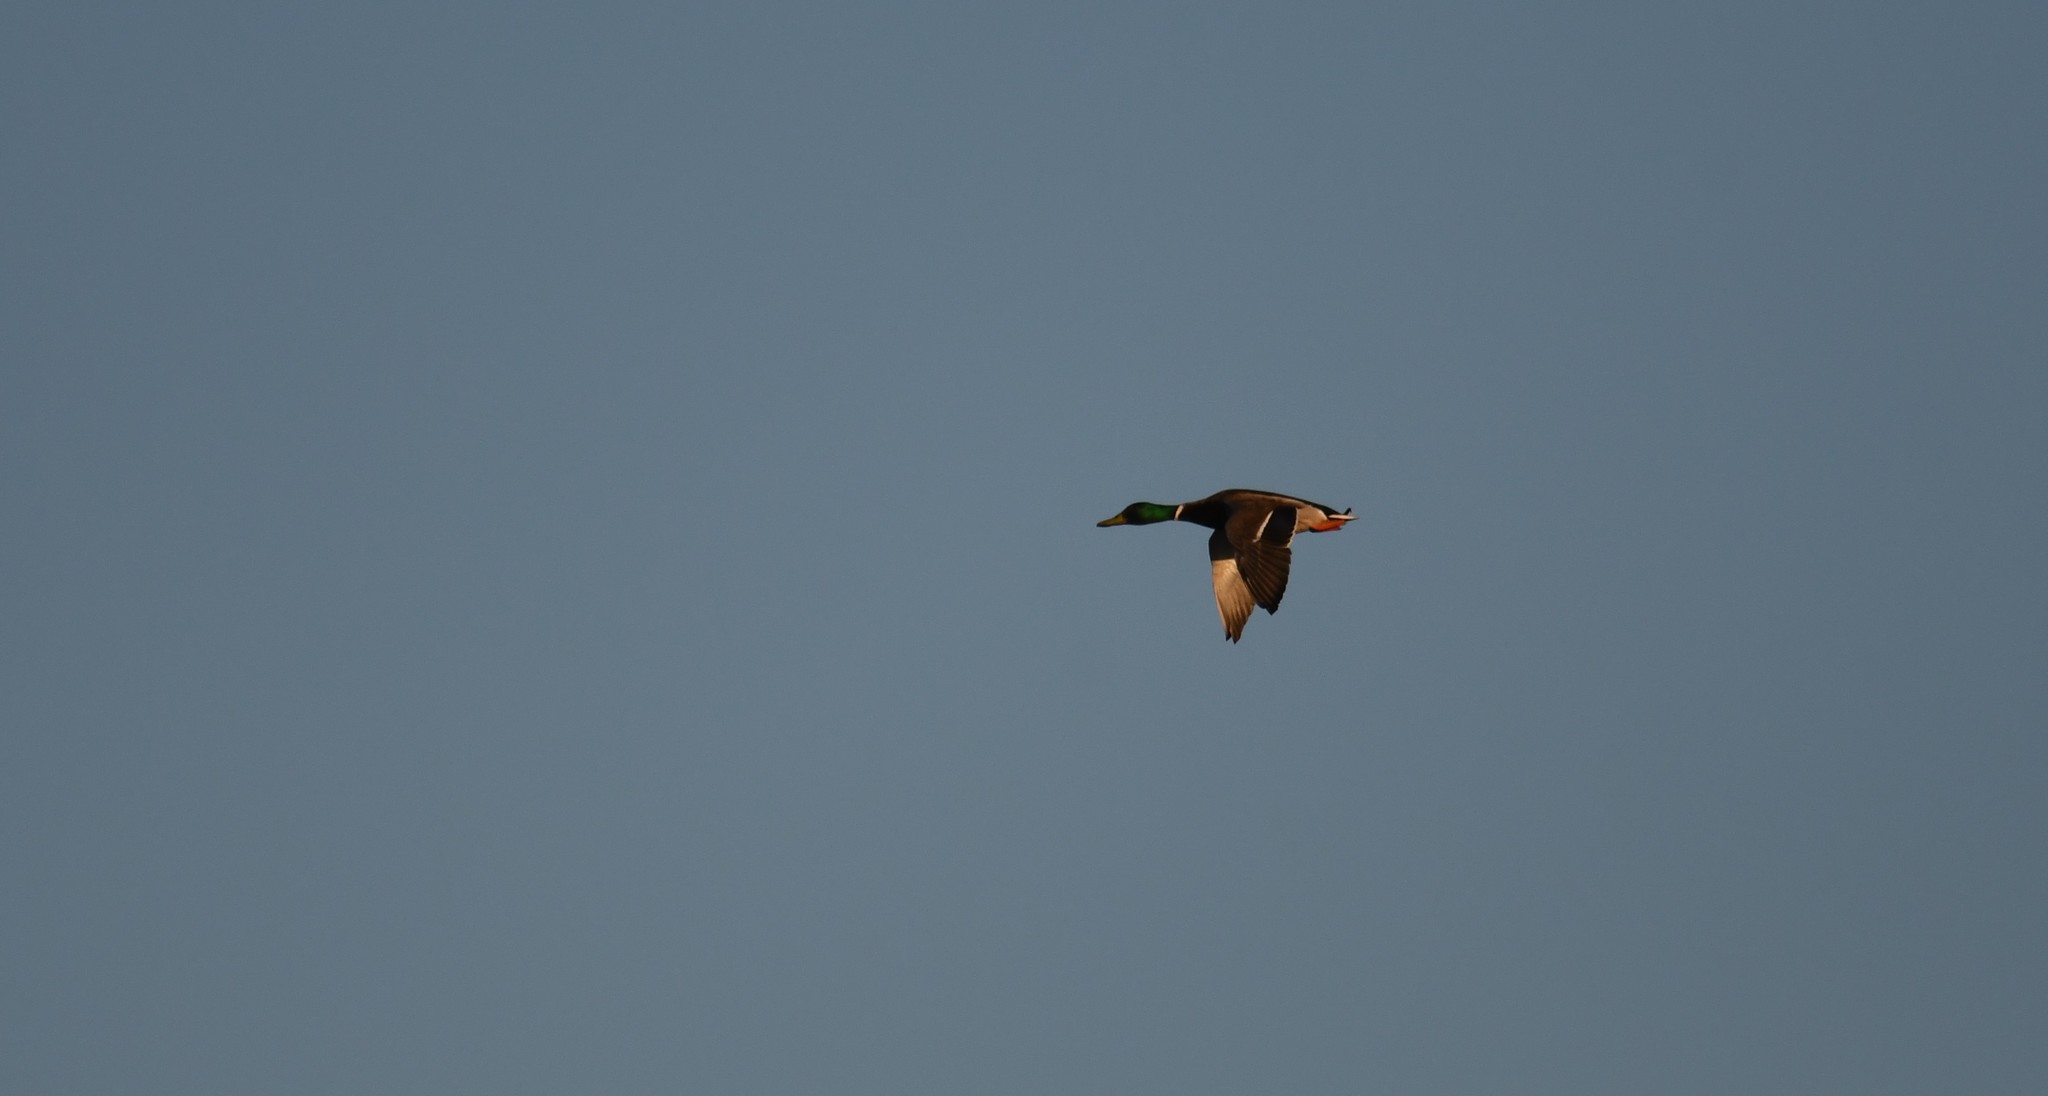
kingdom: Animalia
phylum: Chordata
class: Aves
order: Anseriformes
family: Anatidae
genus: Anas
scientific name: Anas platyrhynchos
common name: Mallard
